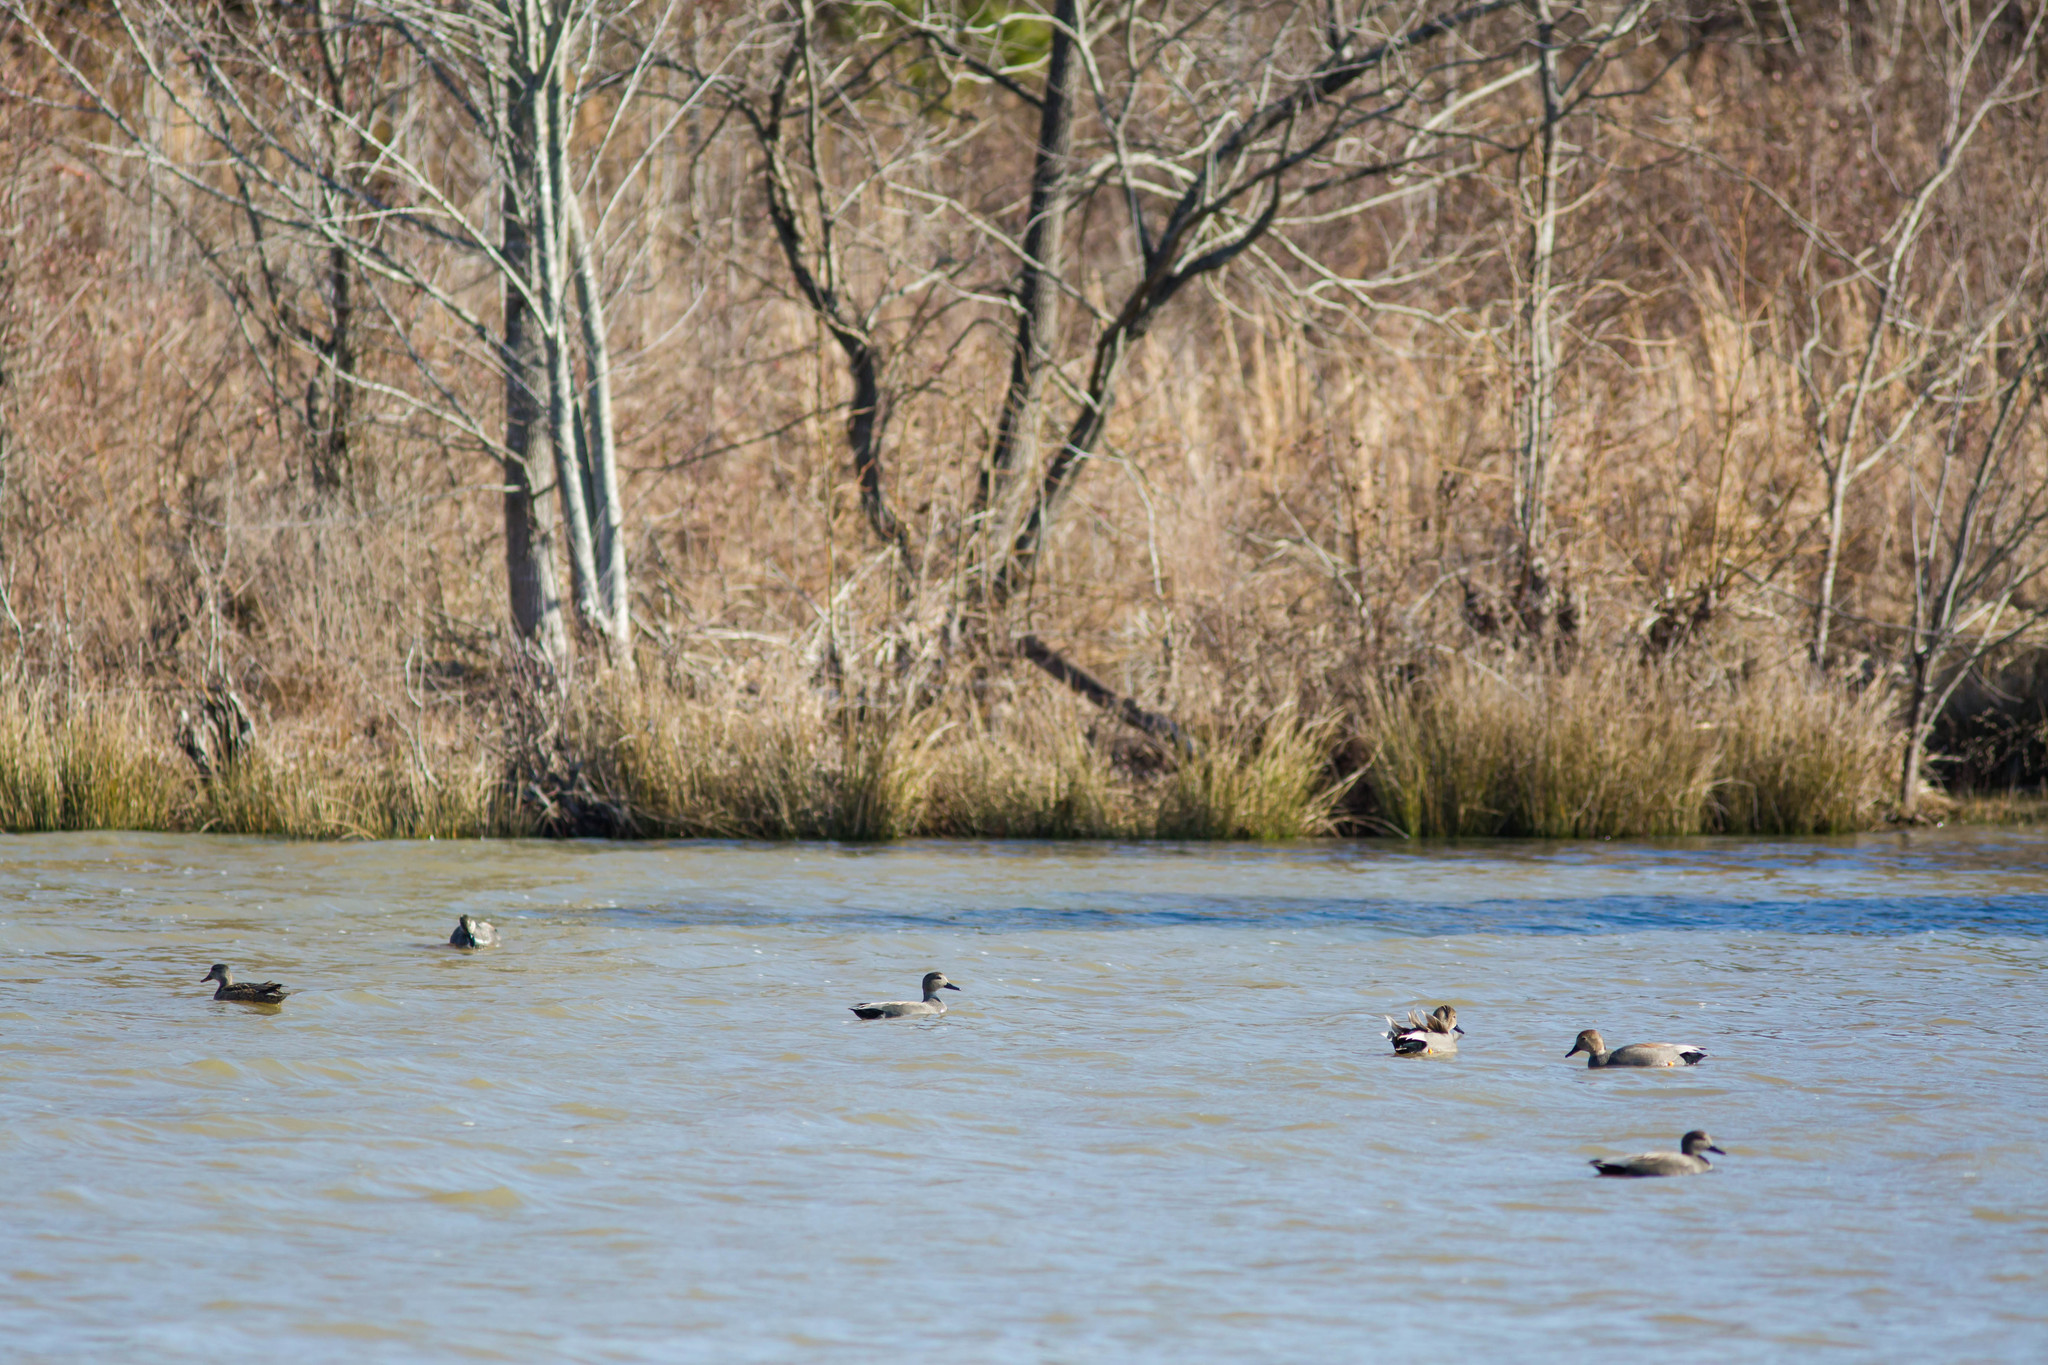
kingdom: Animalia
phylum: Chordata
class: Aves
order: Anseriformes
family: Anatidae
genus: Mareca
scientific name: Mareca strepera
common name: Gadwall
